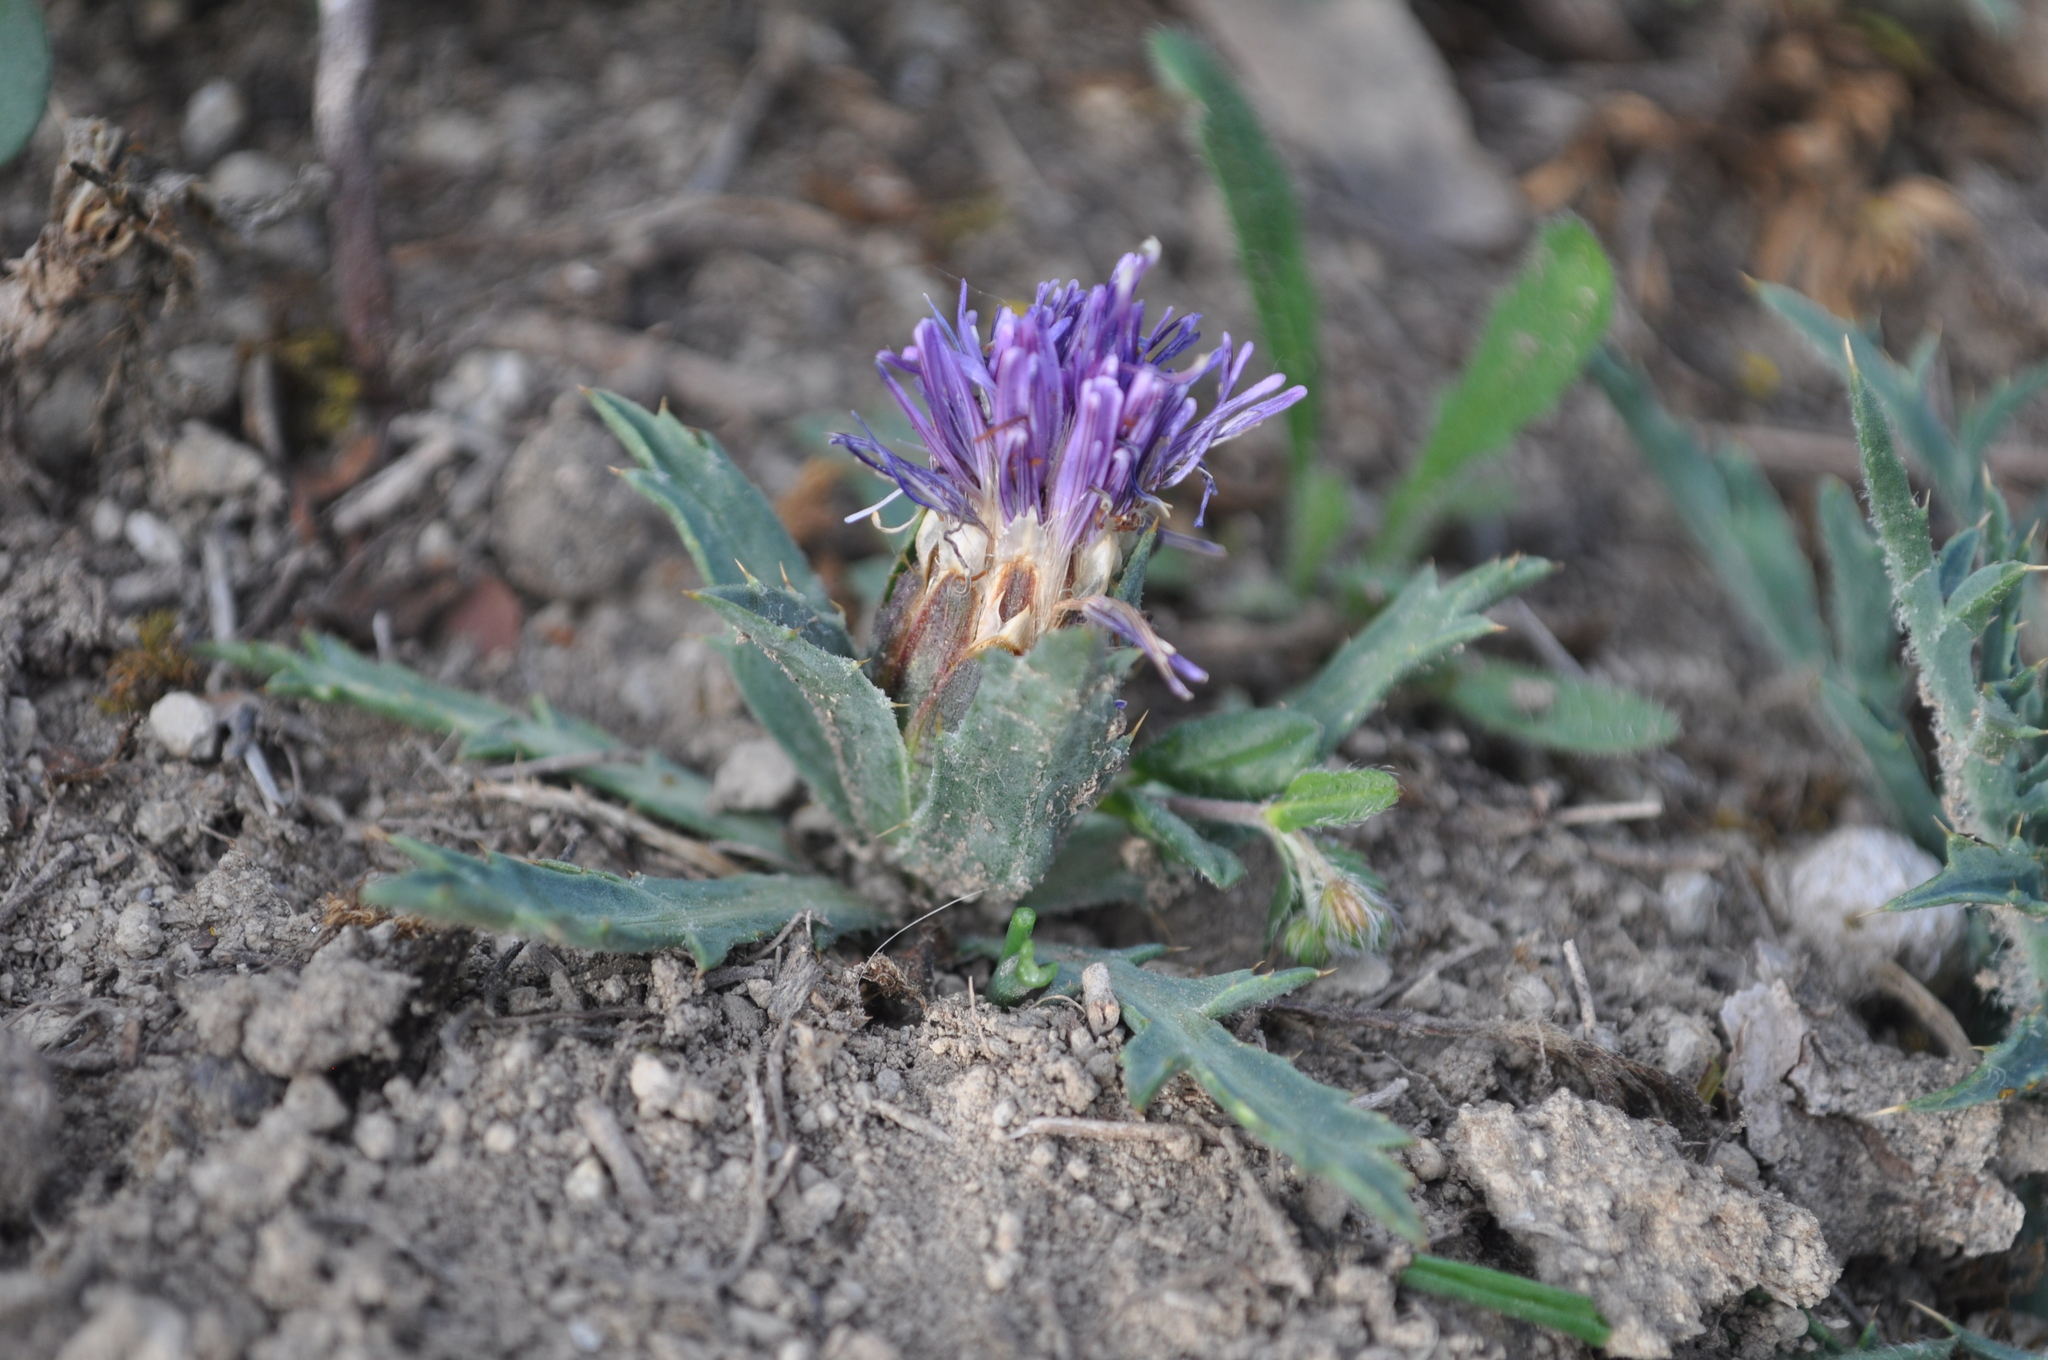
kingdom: Plantae
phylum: Tracheophyta
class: Magnoliopsida
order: Asterales
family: Asteraceae
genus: Carduncellus
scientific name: Carduncellus monspelliensium
